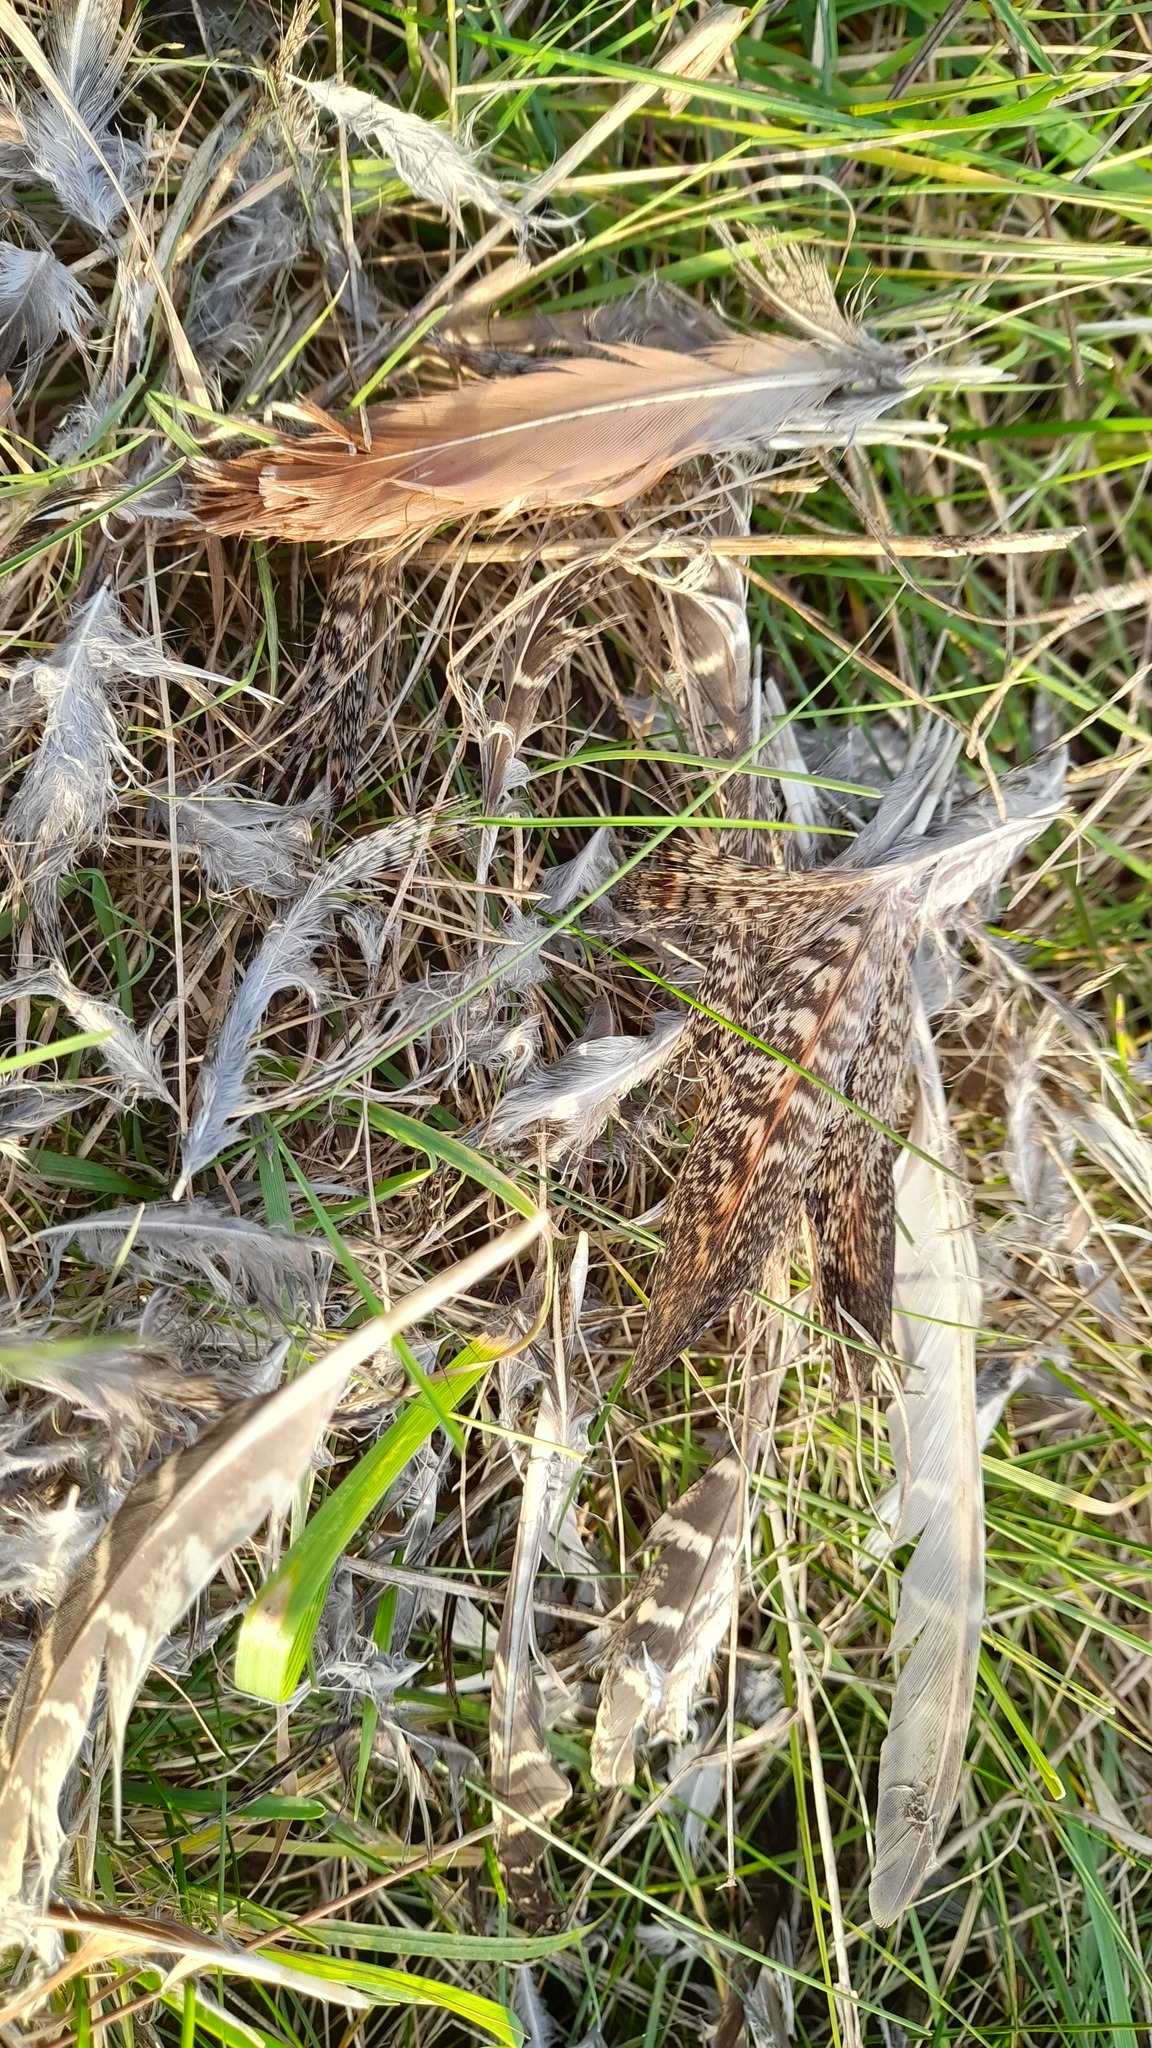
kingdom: Animalia
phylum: Chordata
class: Aves
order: Galliformes
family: Phasianidae
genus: Perdix
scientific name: Perdix perdix
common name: Grey partridge
